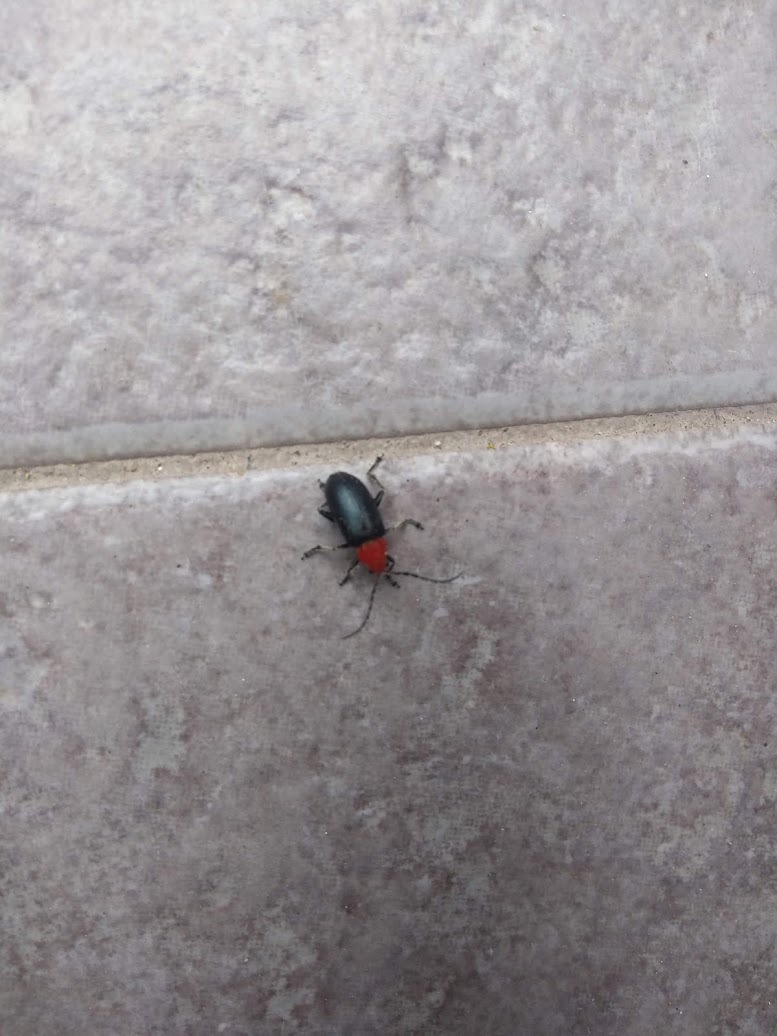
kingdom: Animalia
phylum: Arthropoda
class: Insecta
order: Coleoptera
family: Chrysomelidae
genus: Cacoscelis
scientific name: Cacoscelis
